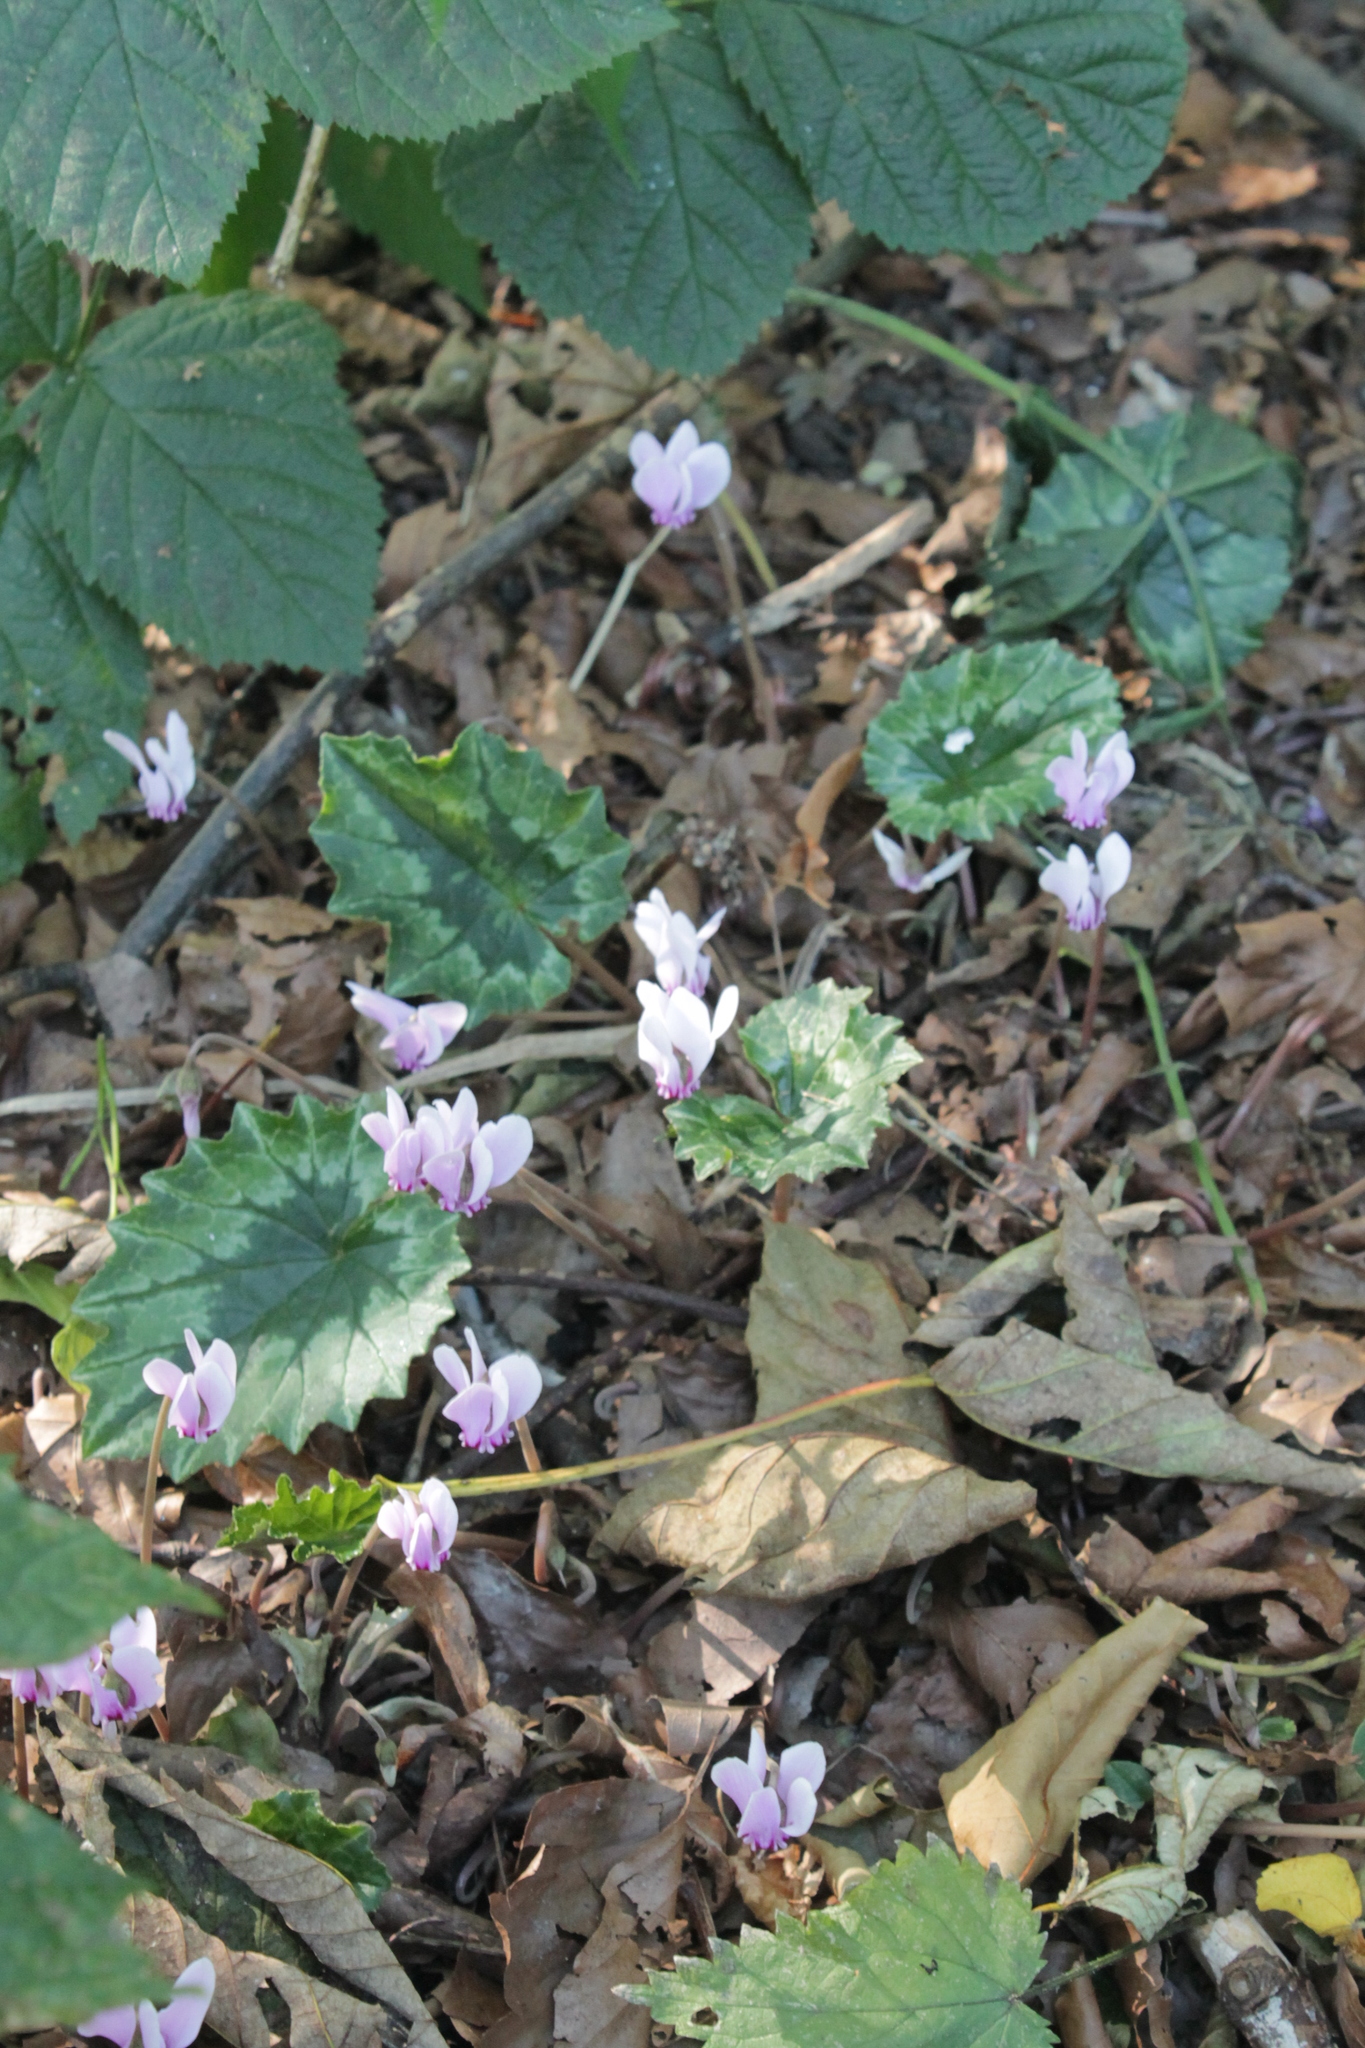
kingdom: Plantae
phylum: Tracheophyta
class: Magnoliopsida
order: Ericales
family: Primulaceae
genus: Cyclamen
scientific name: Cyclamen hederifolium
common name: Sowbread
